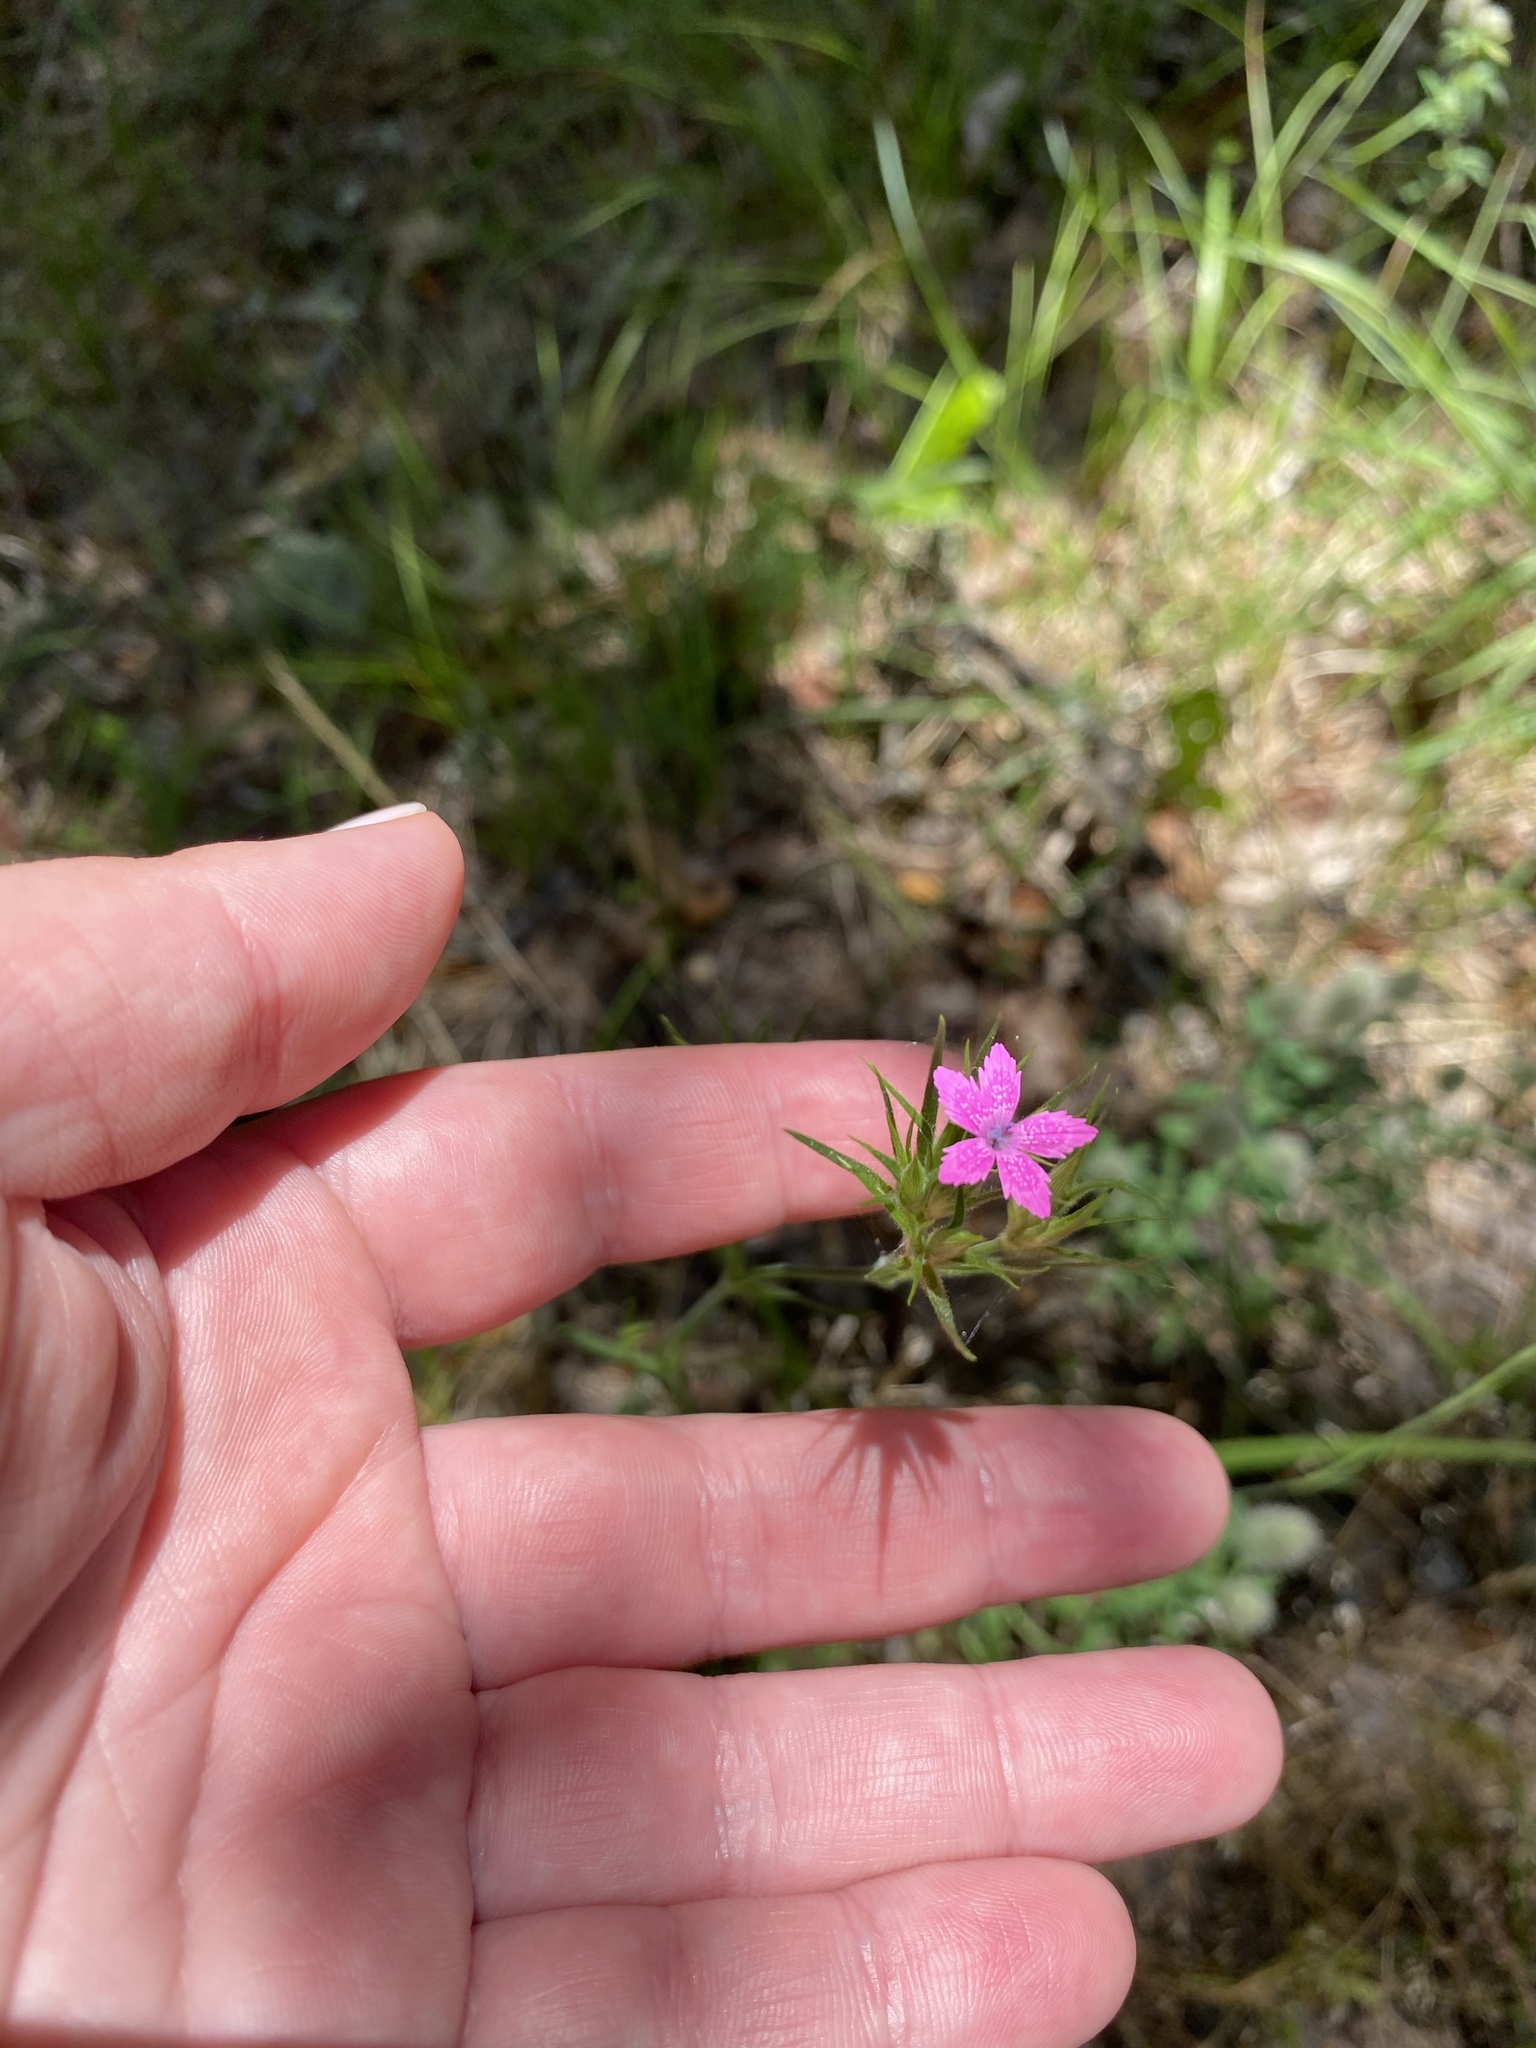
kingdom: Plantae
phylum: Tracheophyta
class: Magnoliopsida
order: Caryophyllales
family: Caryophyllaceae
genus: Dianthus
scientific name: Dianthus armeria
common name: Deptford pink
